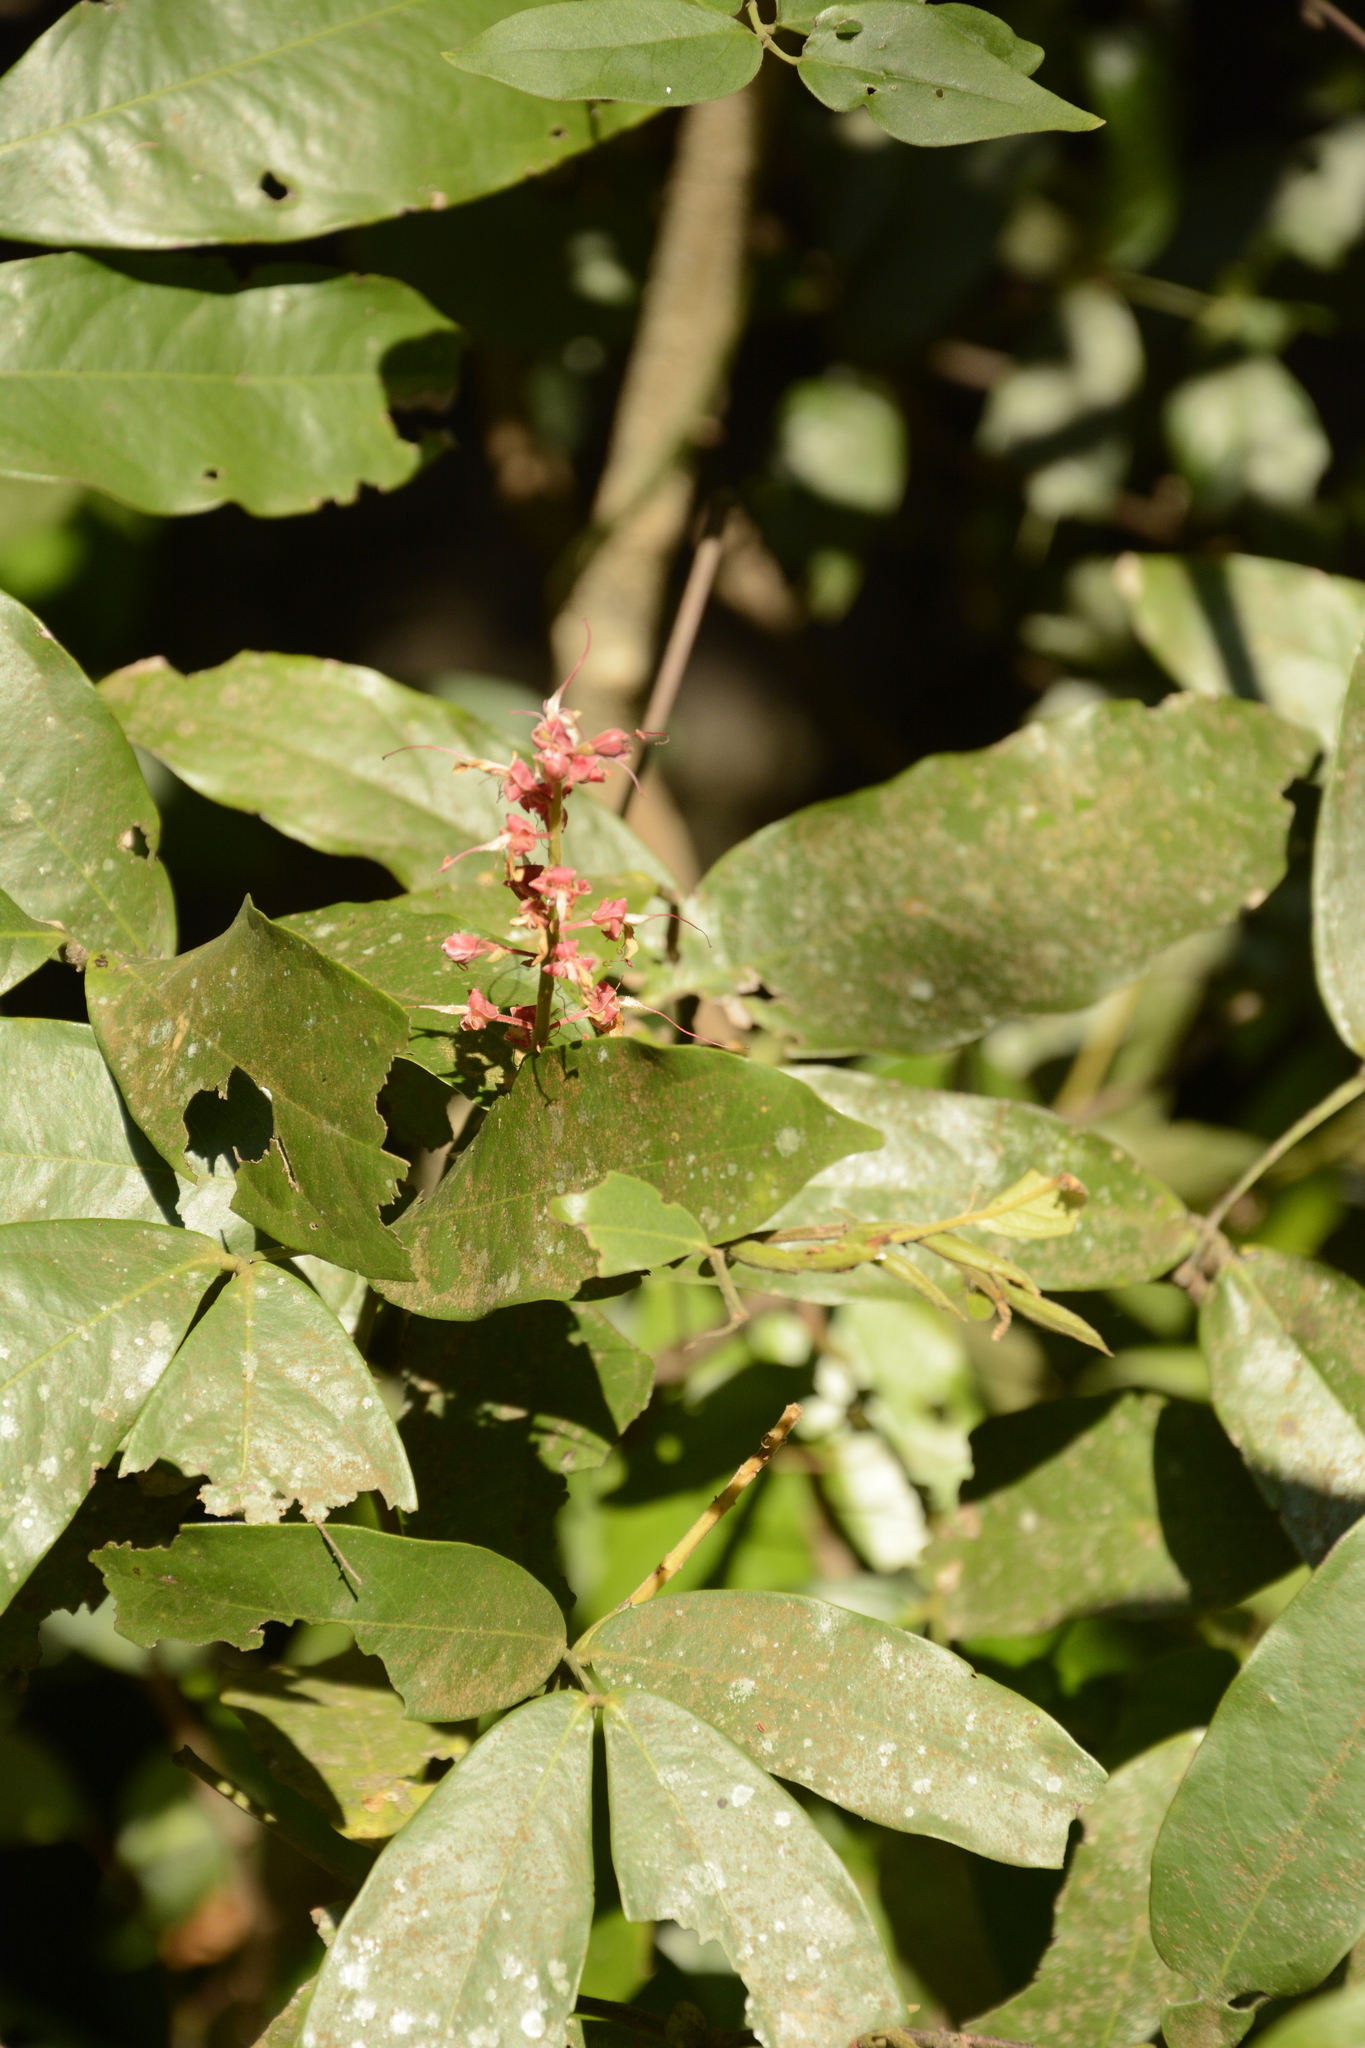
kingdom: Plantae
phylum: Tracheophyta
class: Magnoliopsida
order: Fabales
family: Fabaceae
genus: Humboldtia
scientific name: Humboldtia brunonis
